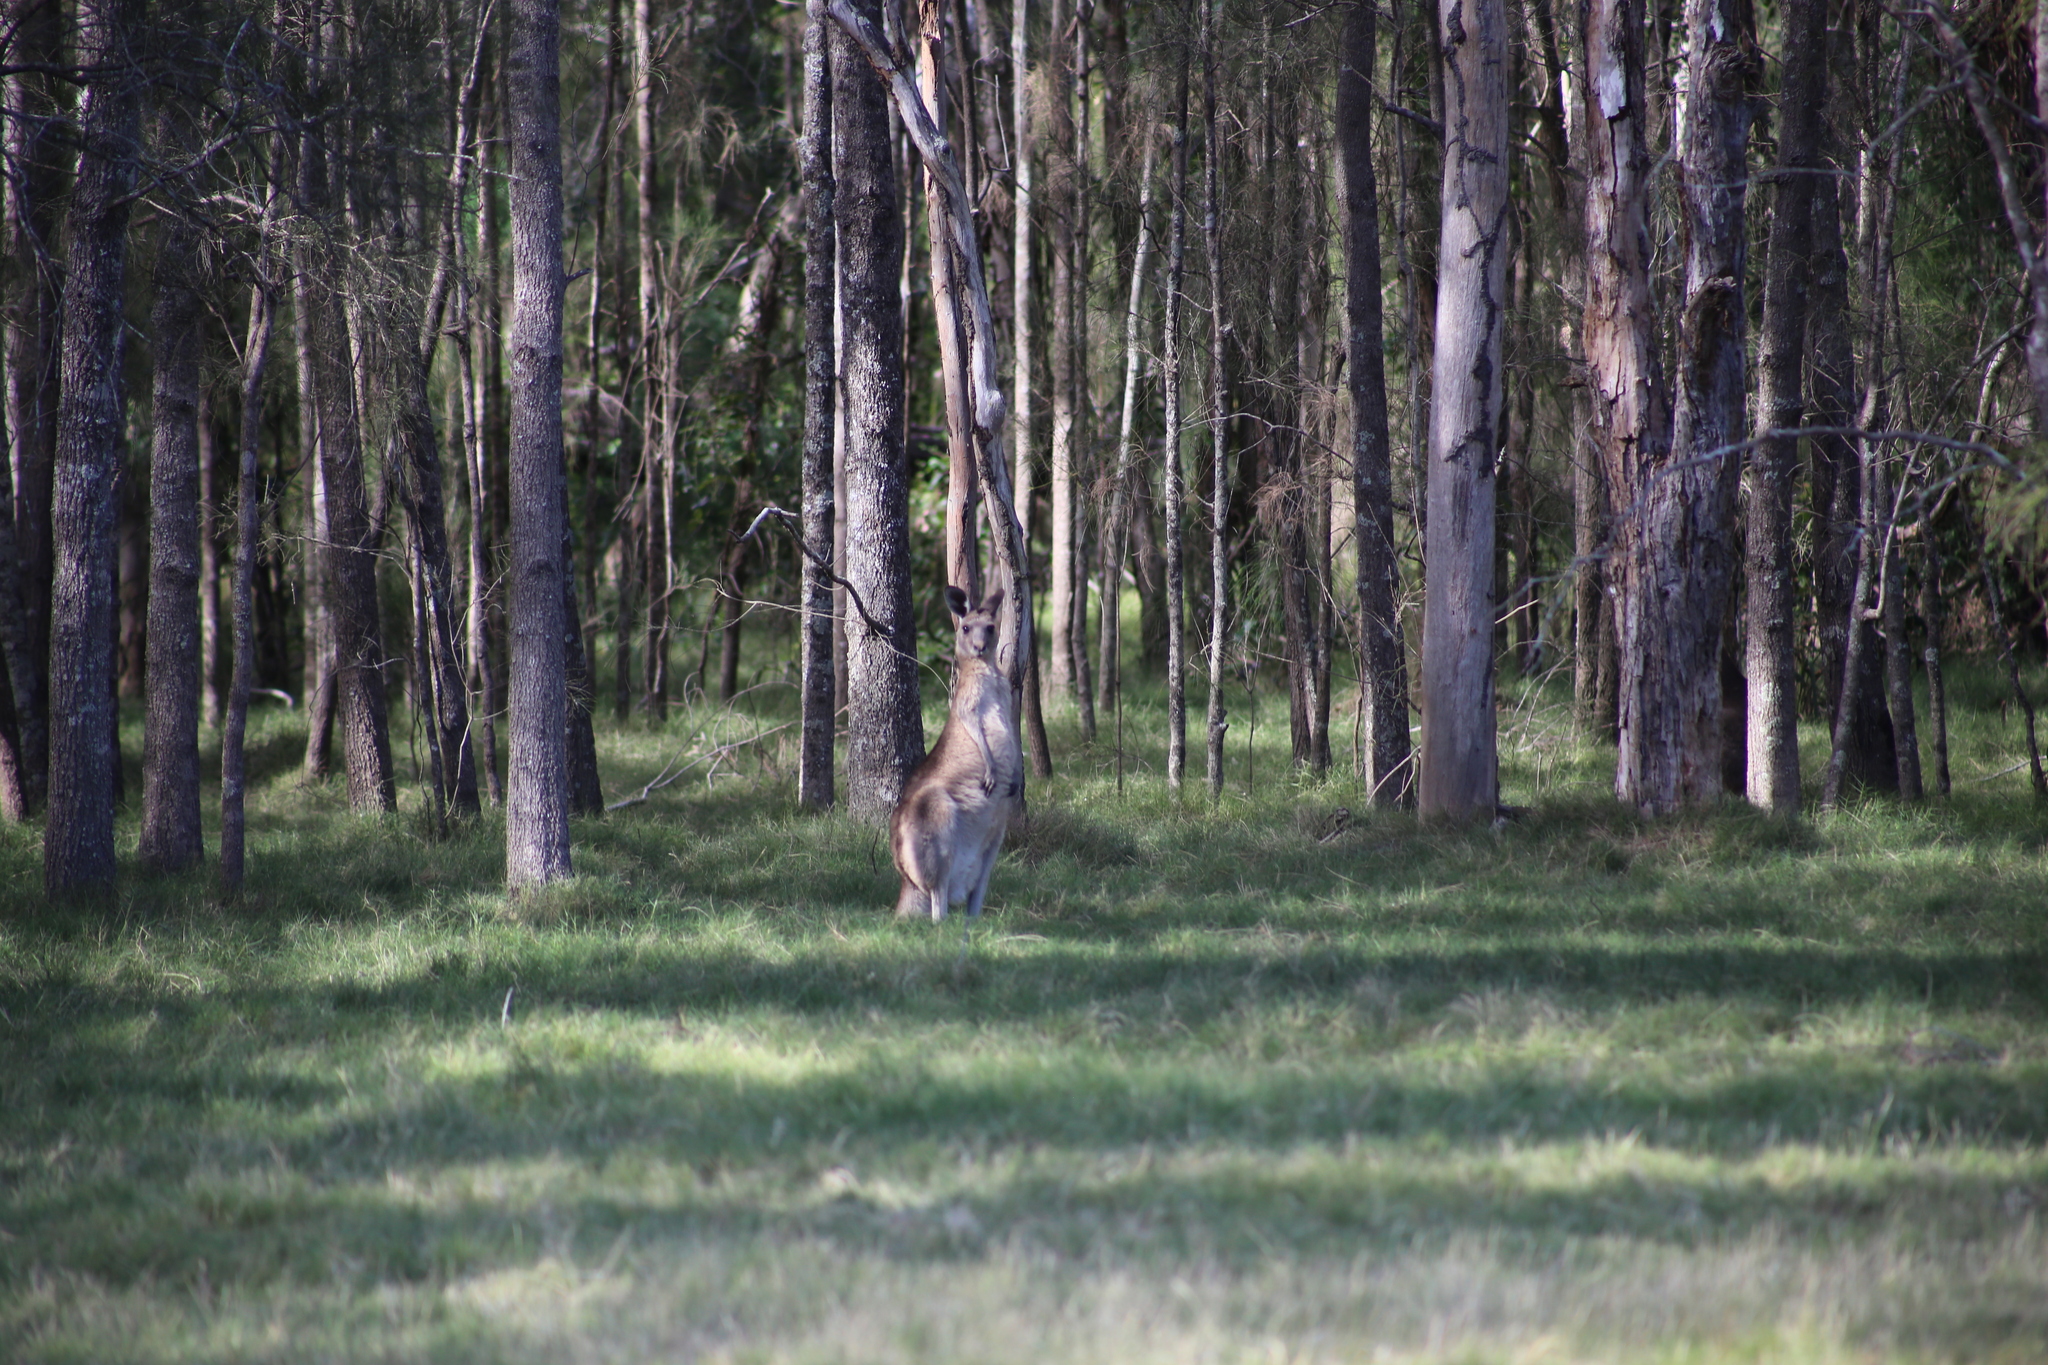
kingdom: Animalia
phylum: Chordata
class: Mammalia
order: Diprotodontia
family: Macropodidae
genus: Macropus
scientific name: Macropus giganteus
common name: Eastern grey kangaroo
